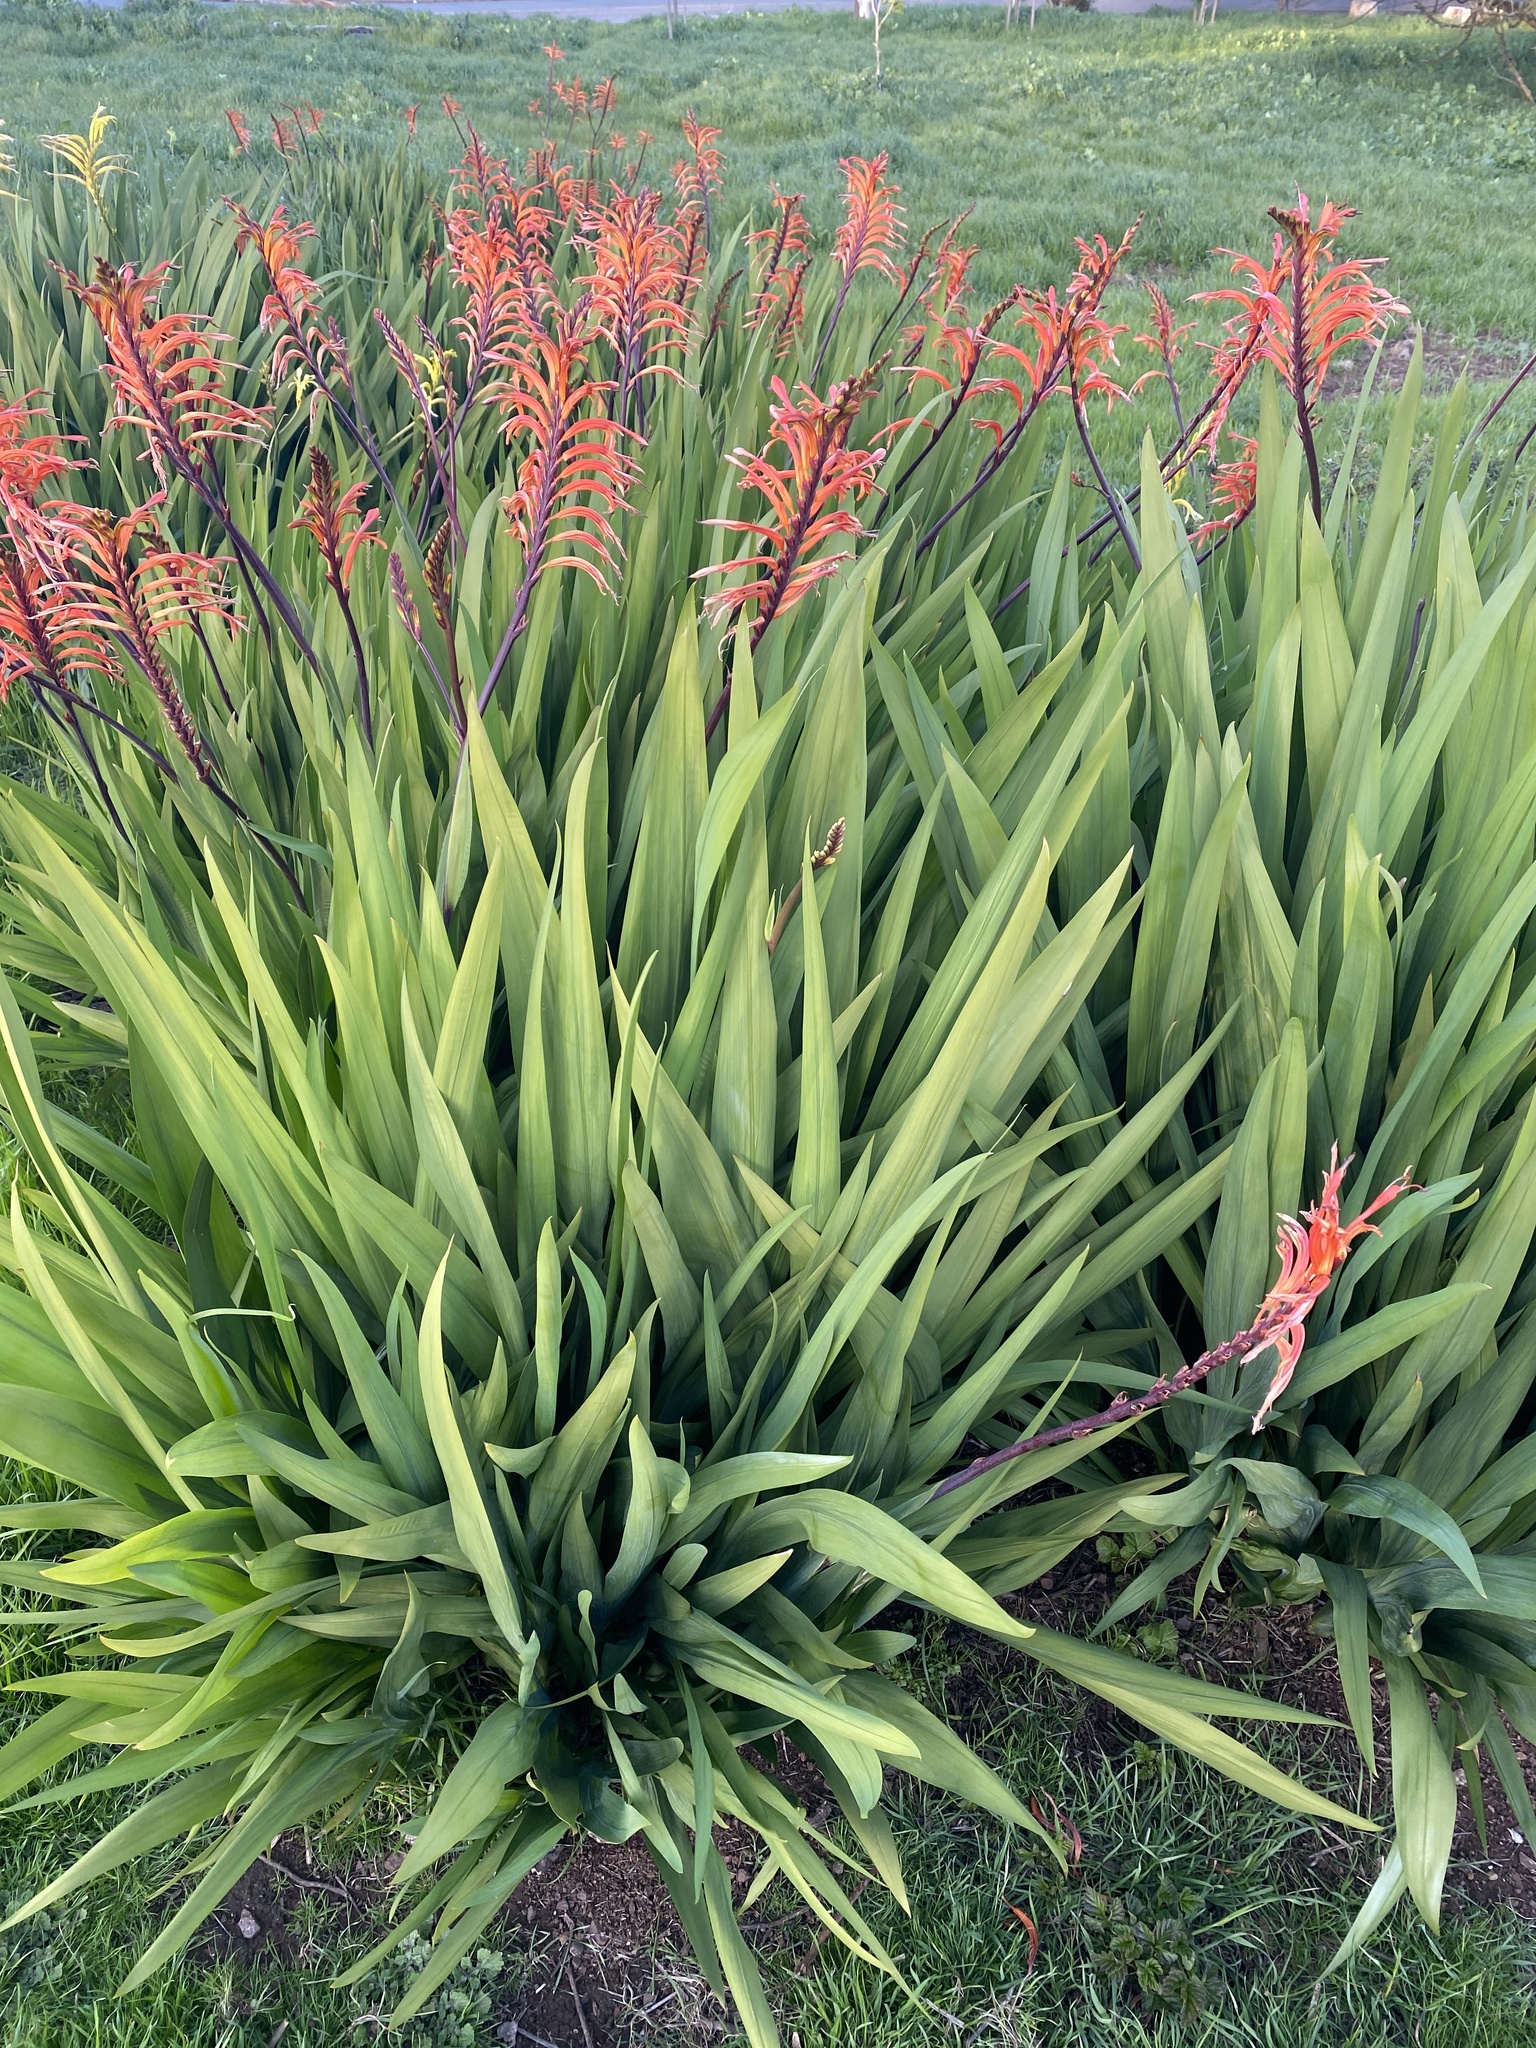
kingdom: Plantae
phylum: Tracheophyta
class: Liliopsida
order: Asparagales
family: Iridaceae
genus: Chasmanthe
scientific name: Chasmanthe floribunda
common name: African cornflag
